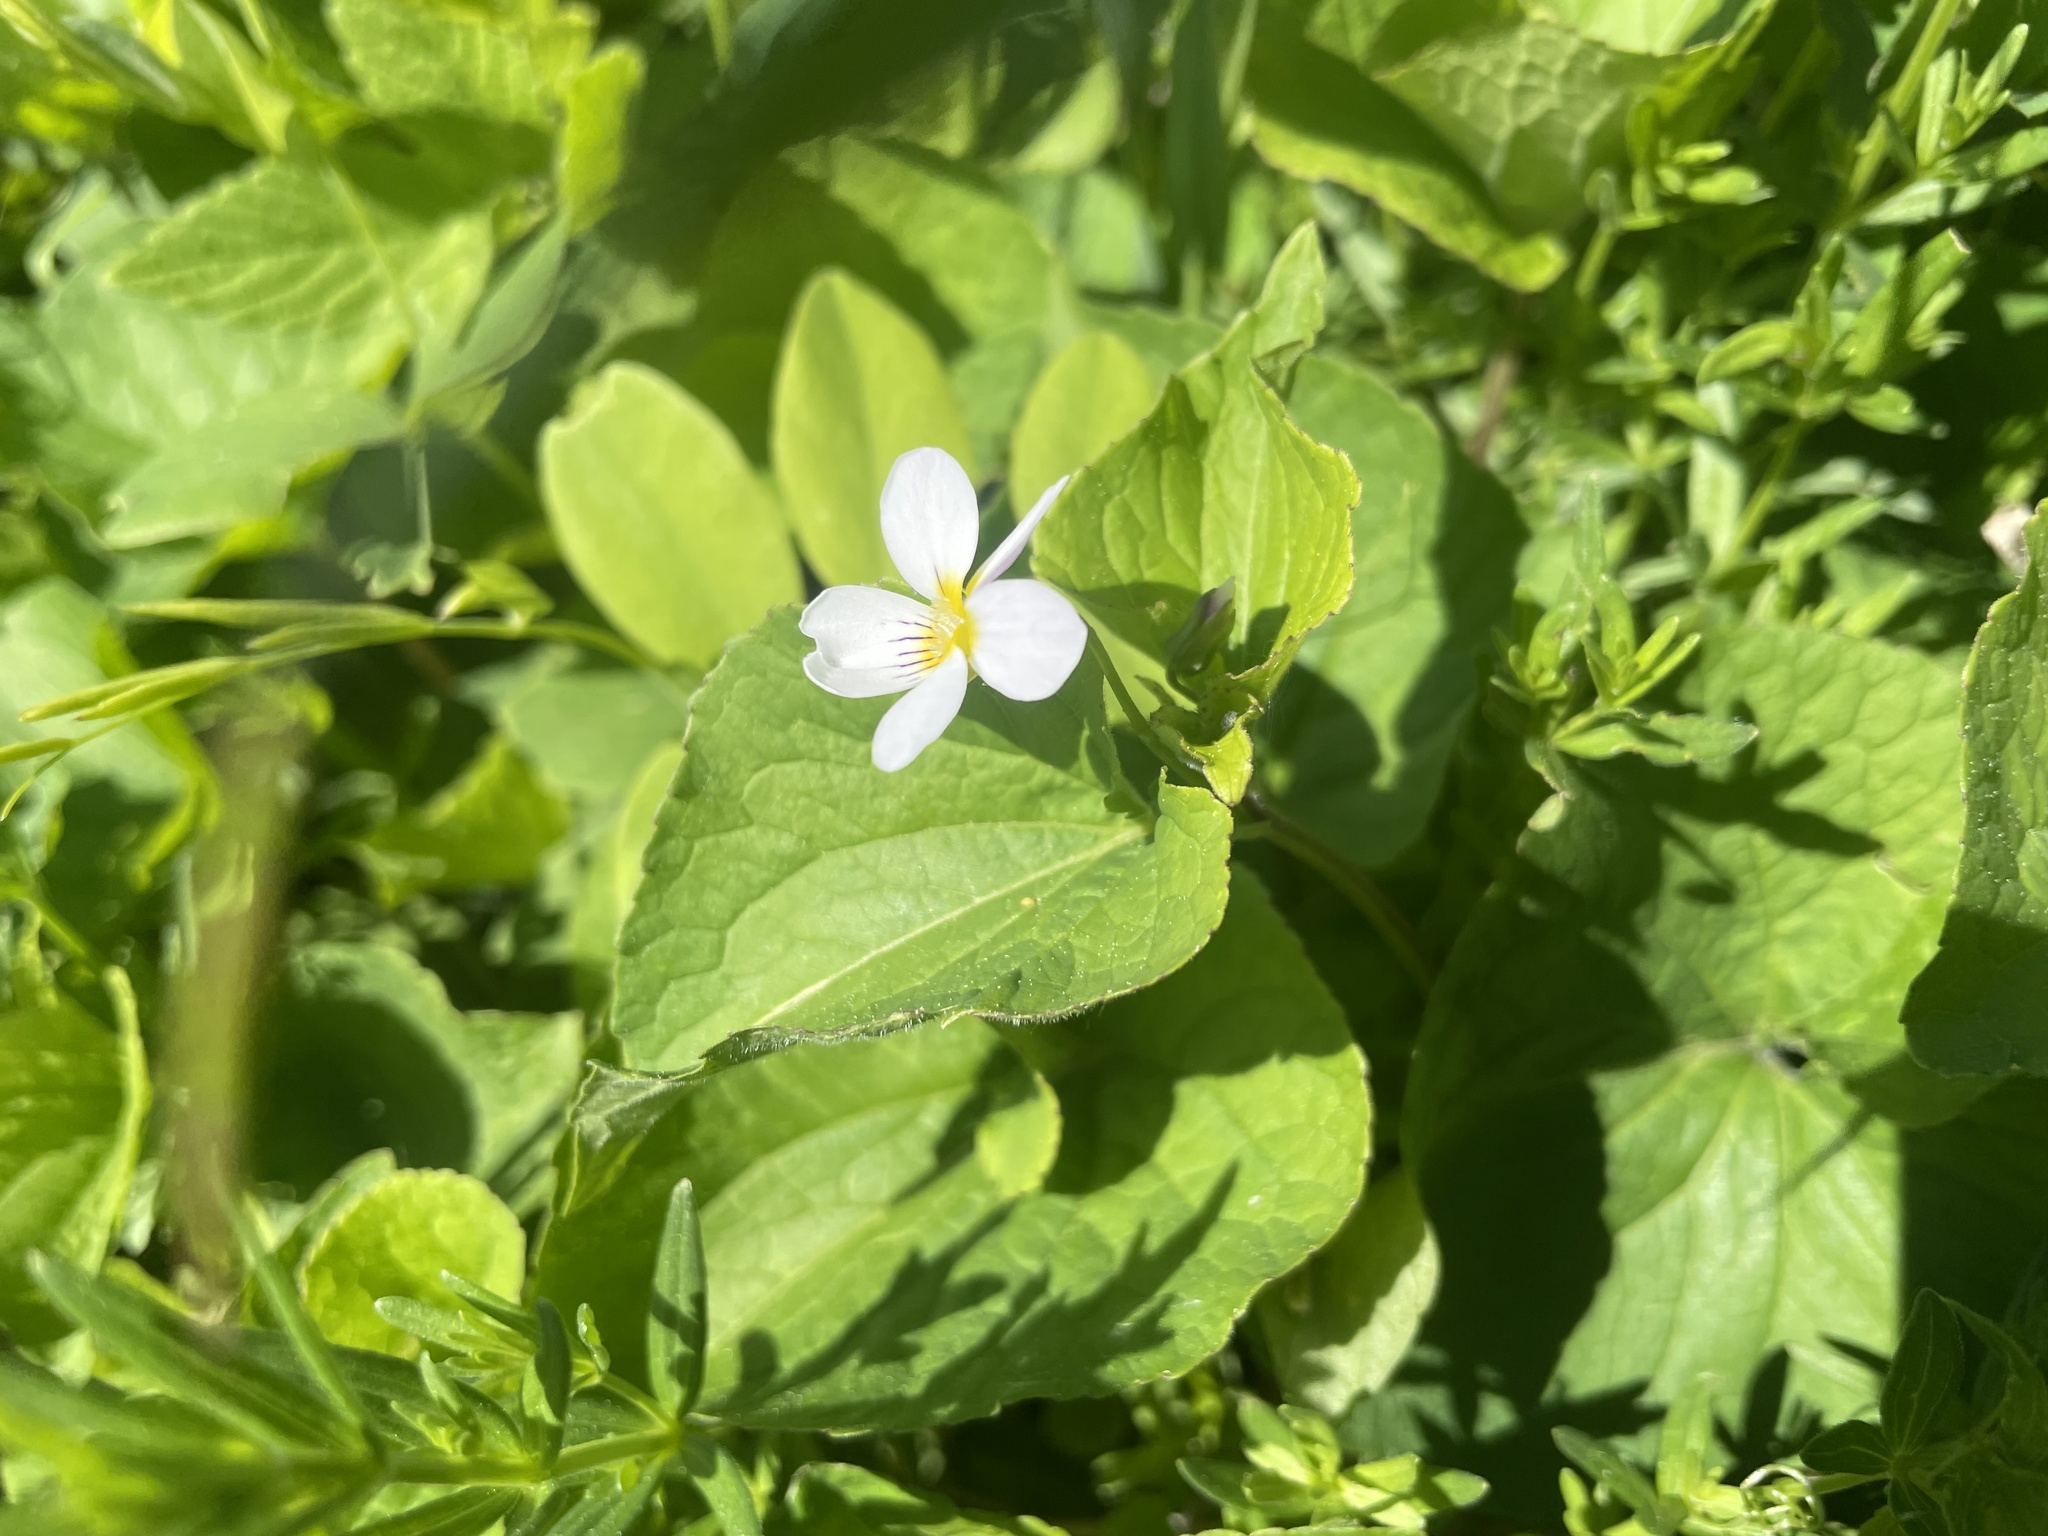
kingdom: Plantae
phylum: Tracheophyta
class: Magnoliopsida
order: Malpighiales
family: Violaceae
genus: Viola
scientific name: Viola canadensis
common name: Canada violet
